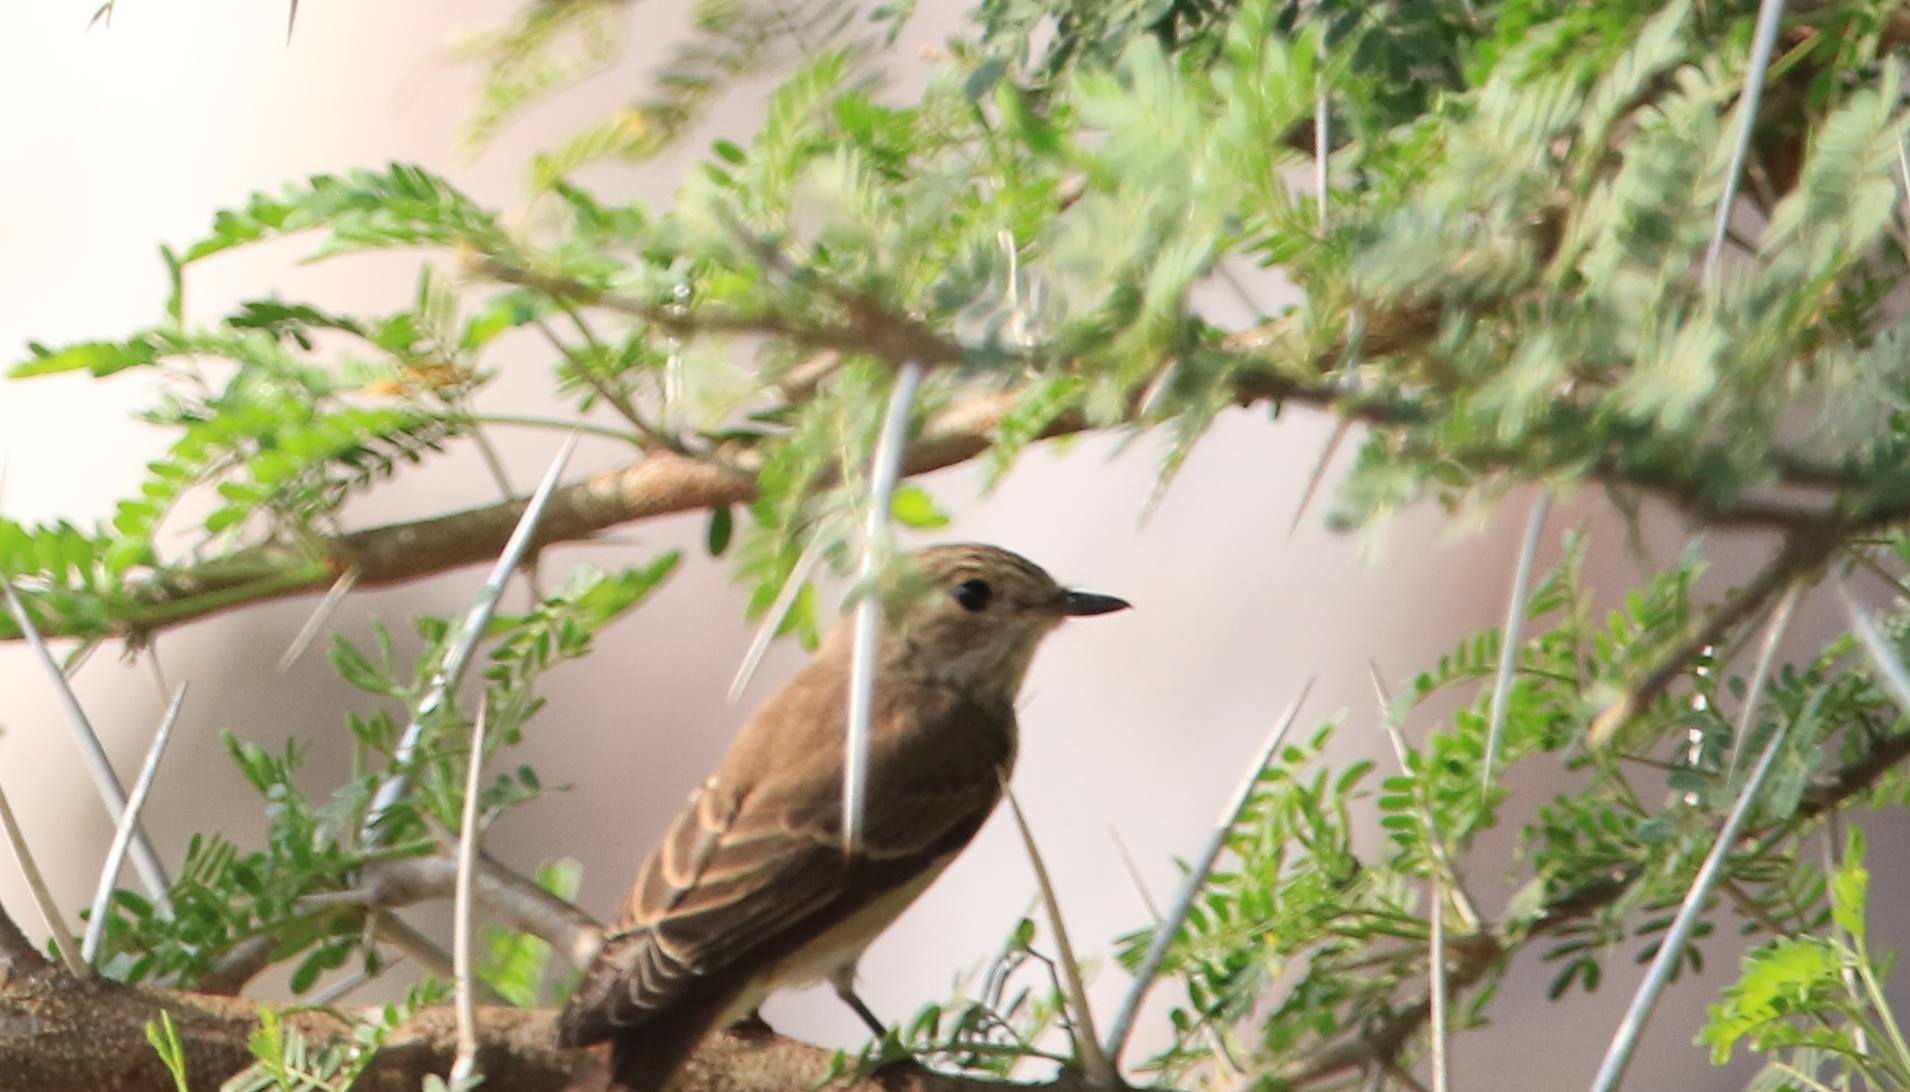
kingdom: Animalia
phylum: Chordata
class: Aves
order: Passeriformes
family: Muscicapidae
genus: Muscicapa
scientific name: Muscicapa striata
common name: Spotted flycatcher
